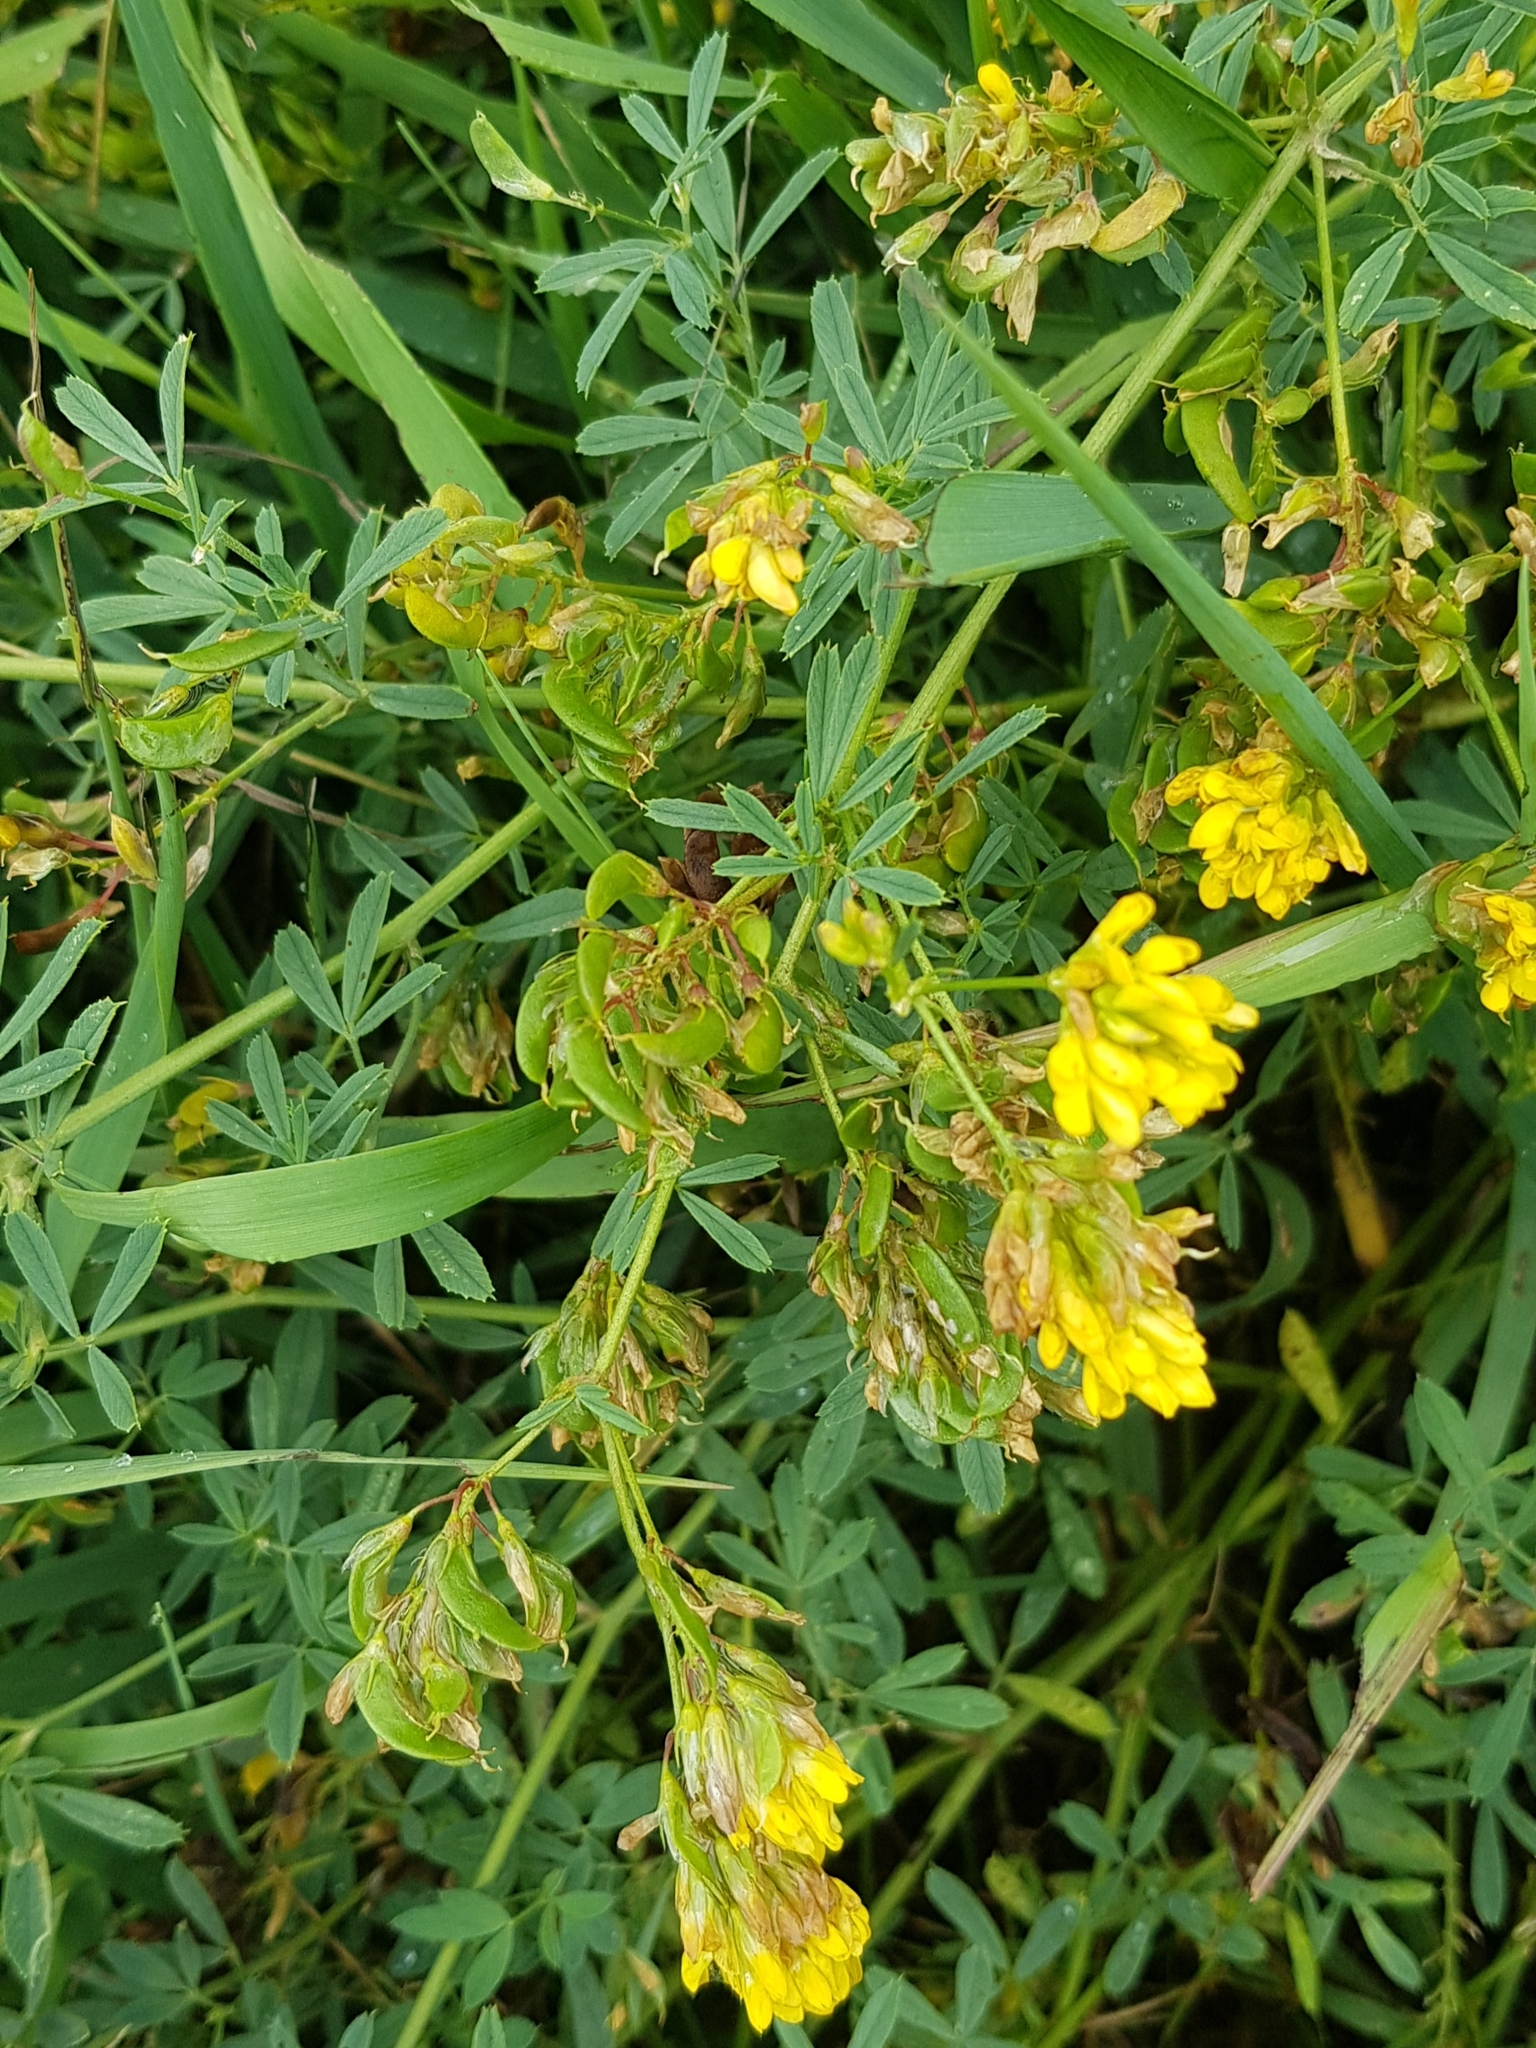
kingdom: Plantae
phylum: Tracheophyta
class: Magnoliopsida
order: Fabales
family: Fabaceae
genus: Medicago
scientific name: Medicago falcata
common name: Sickle medick
